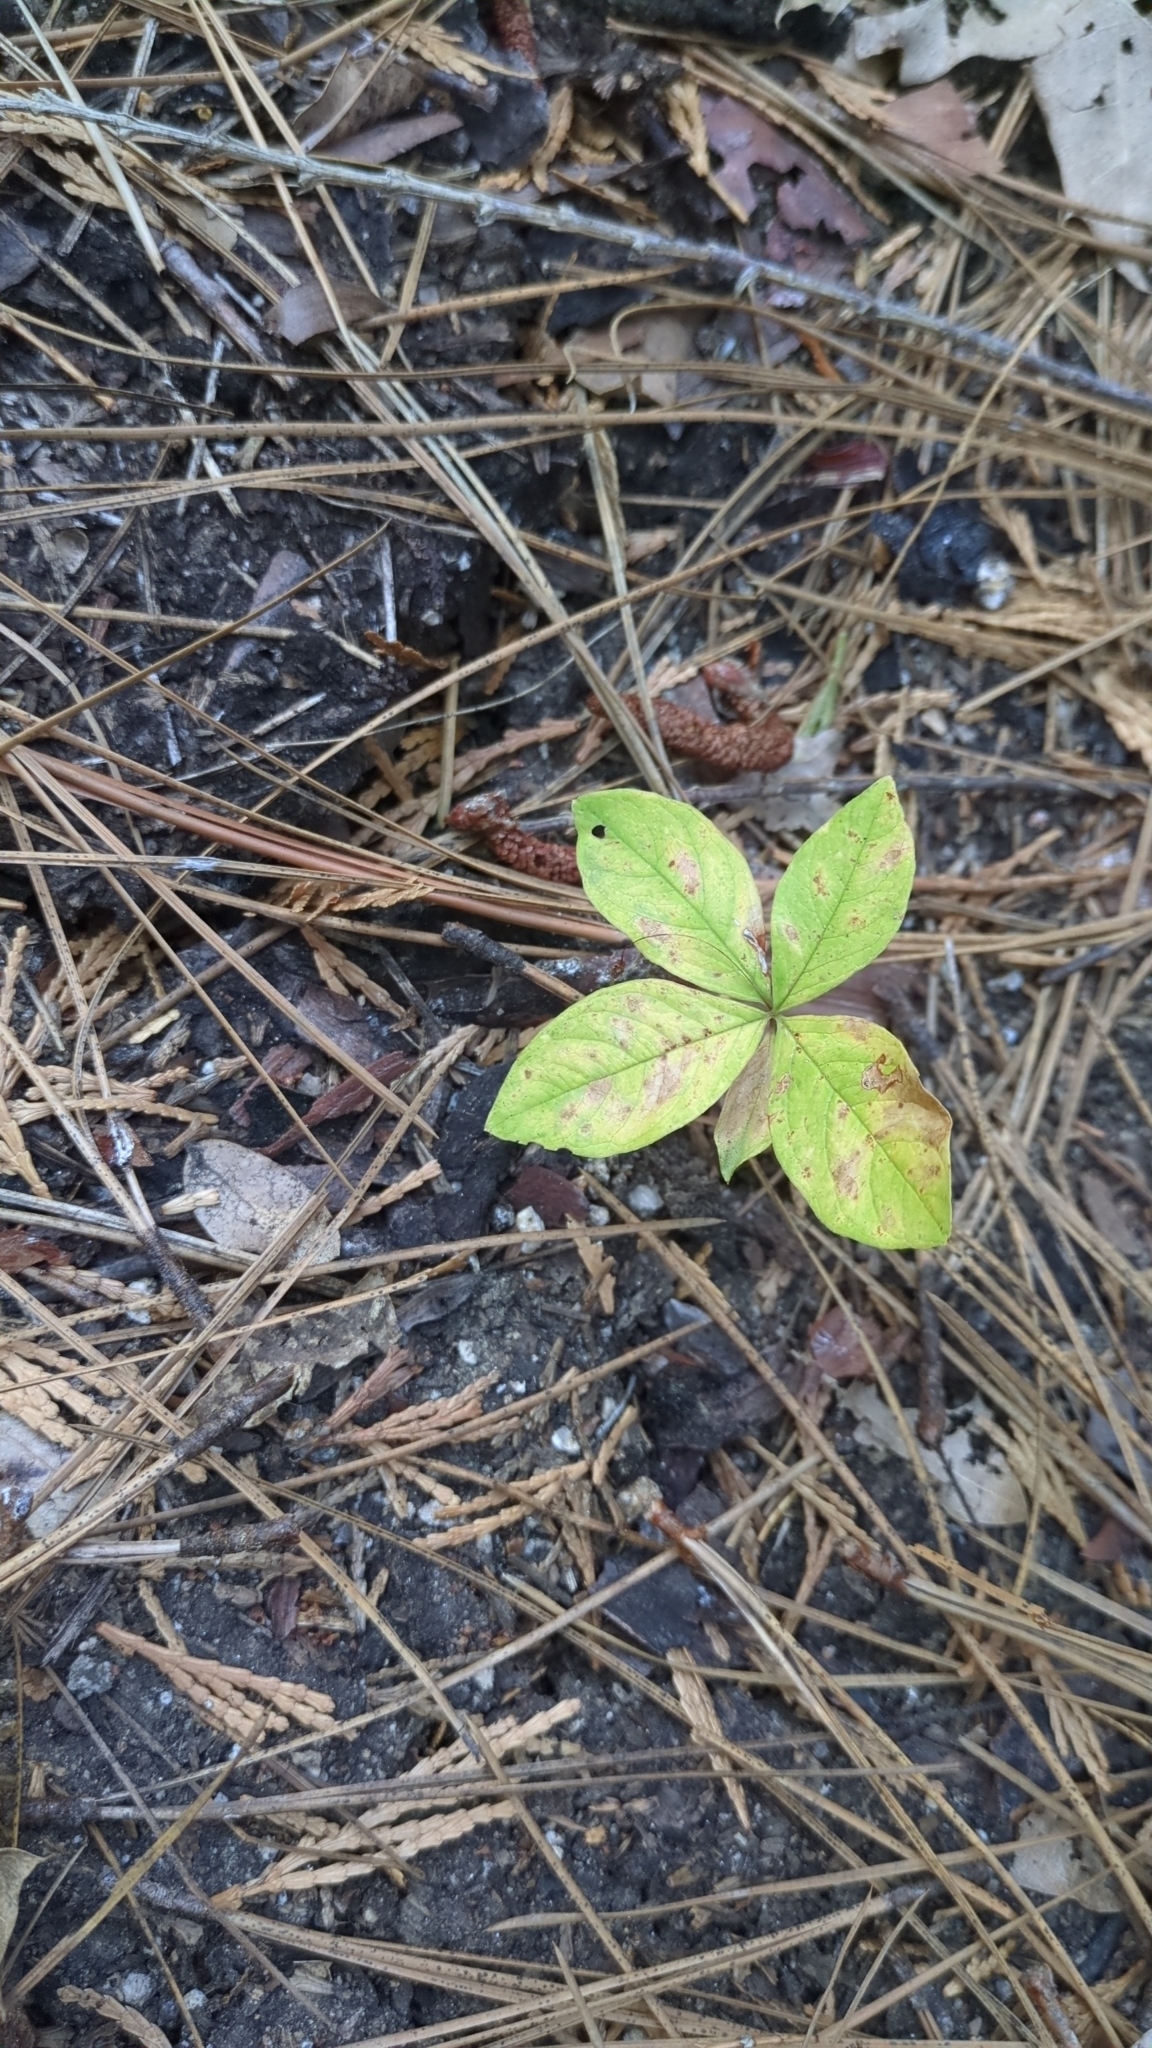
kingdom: Plantae
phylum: Tracheophyta
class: Magnoliopsida
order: Ericales
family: Primulaceae
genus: Lysimachia
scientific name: Lysimachia latifolia
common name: Pacific starflower
